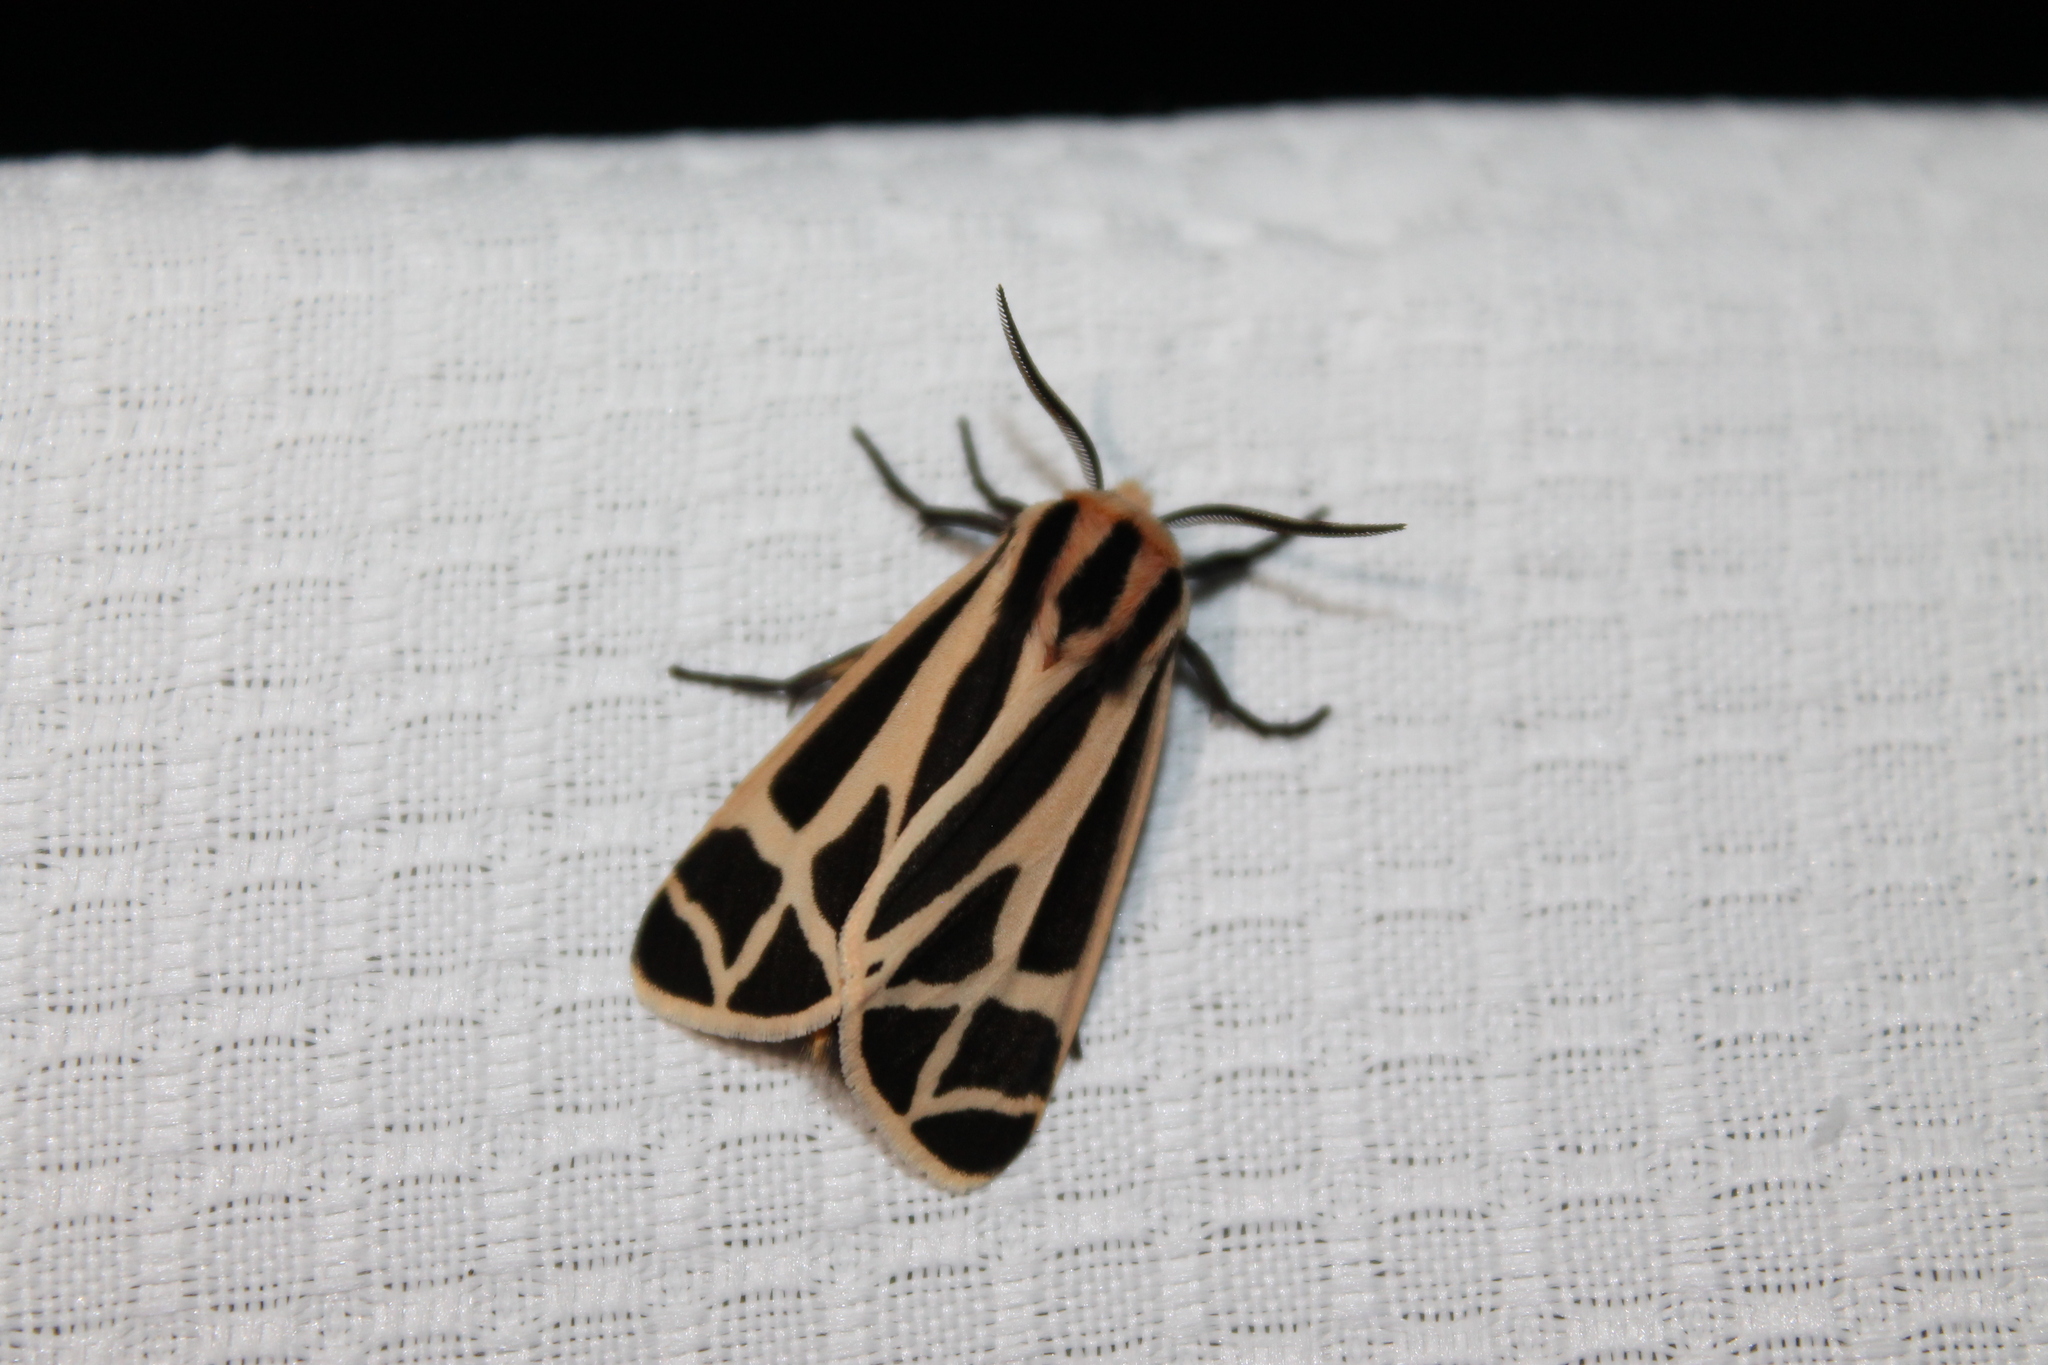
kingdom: Animalia
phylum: Arthropoda
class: Insecta
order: Lepidoptera
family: Erebidae
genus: Apantesis
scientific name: Apantesis phalerata
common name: Harnessed tiger moth
